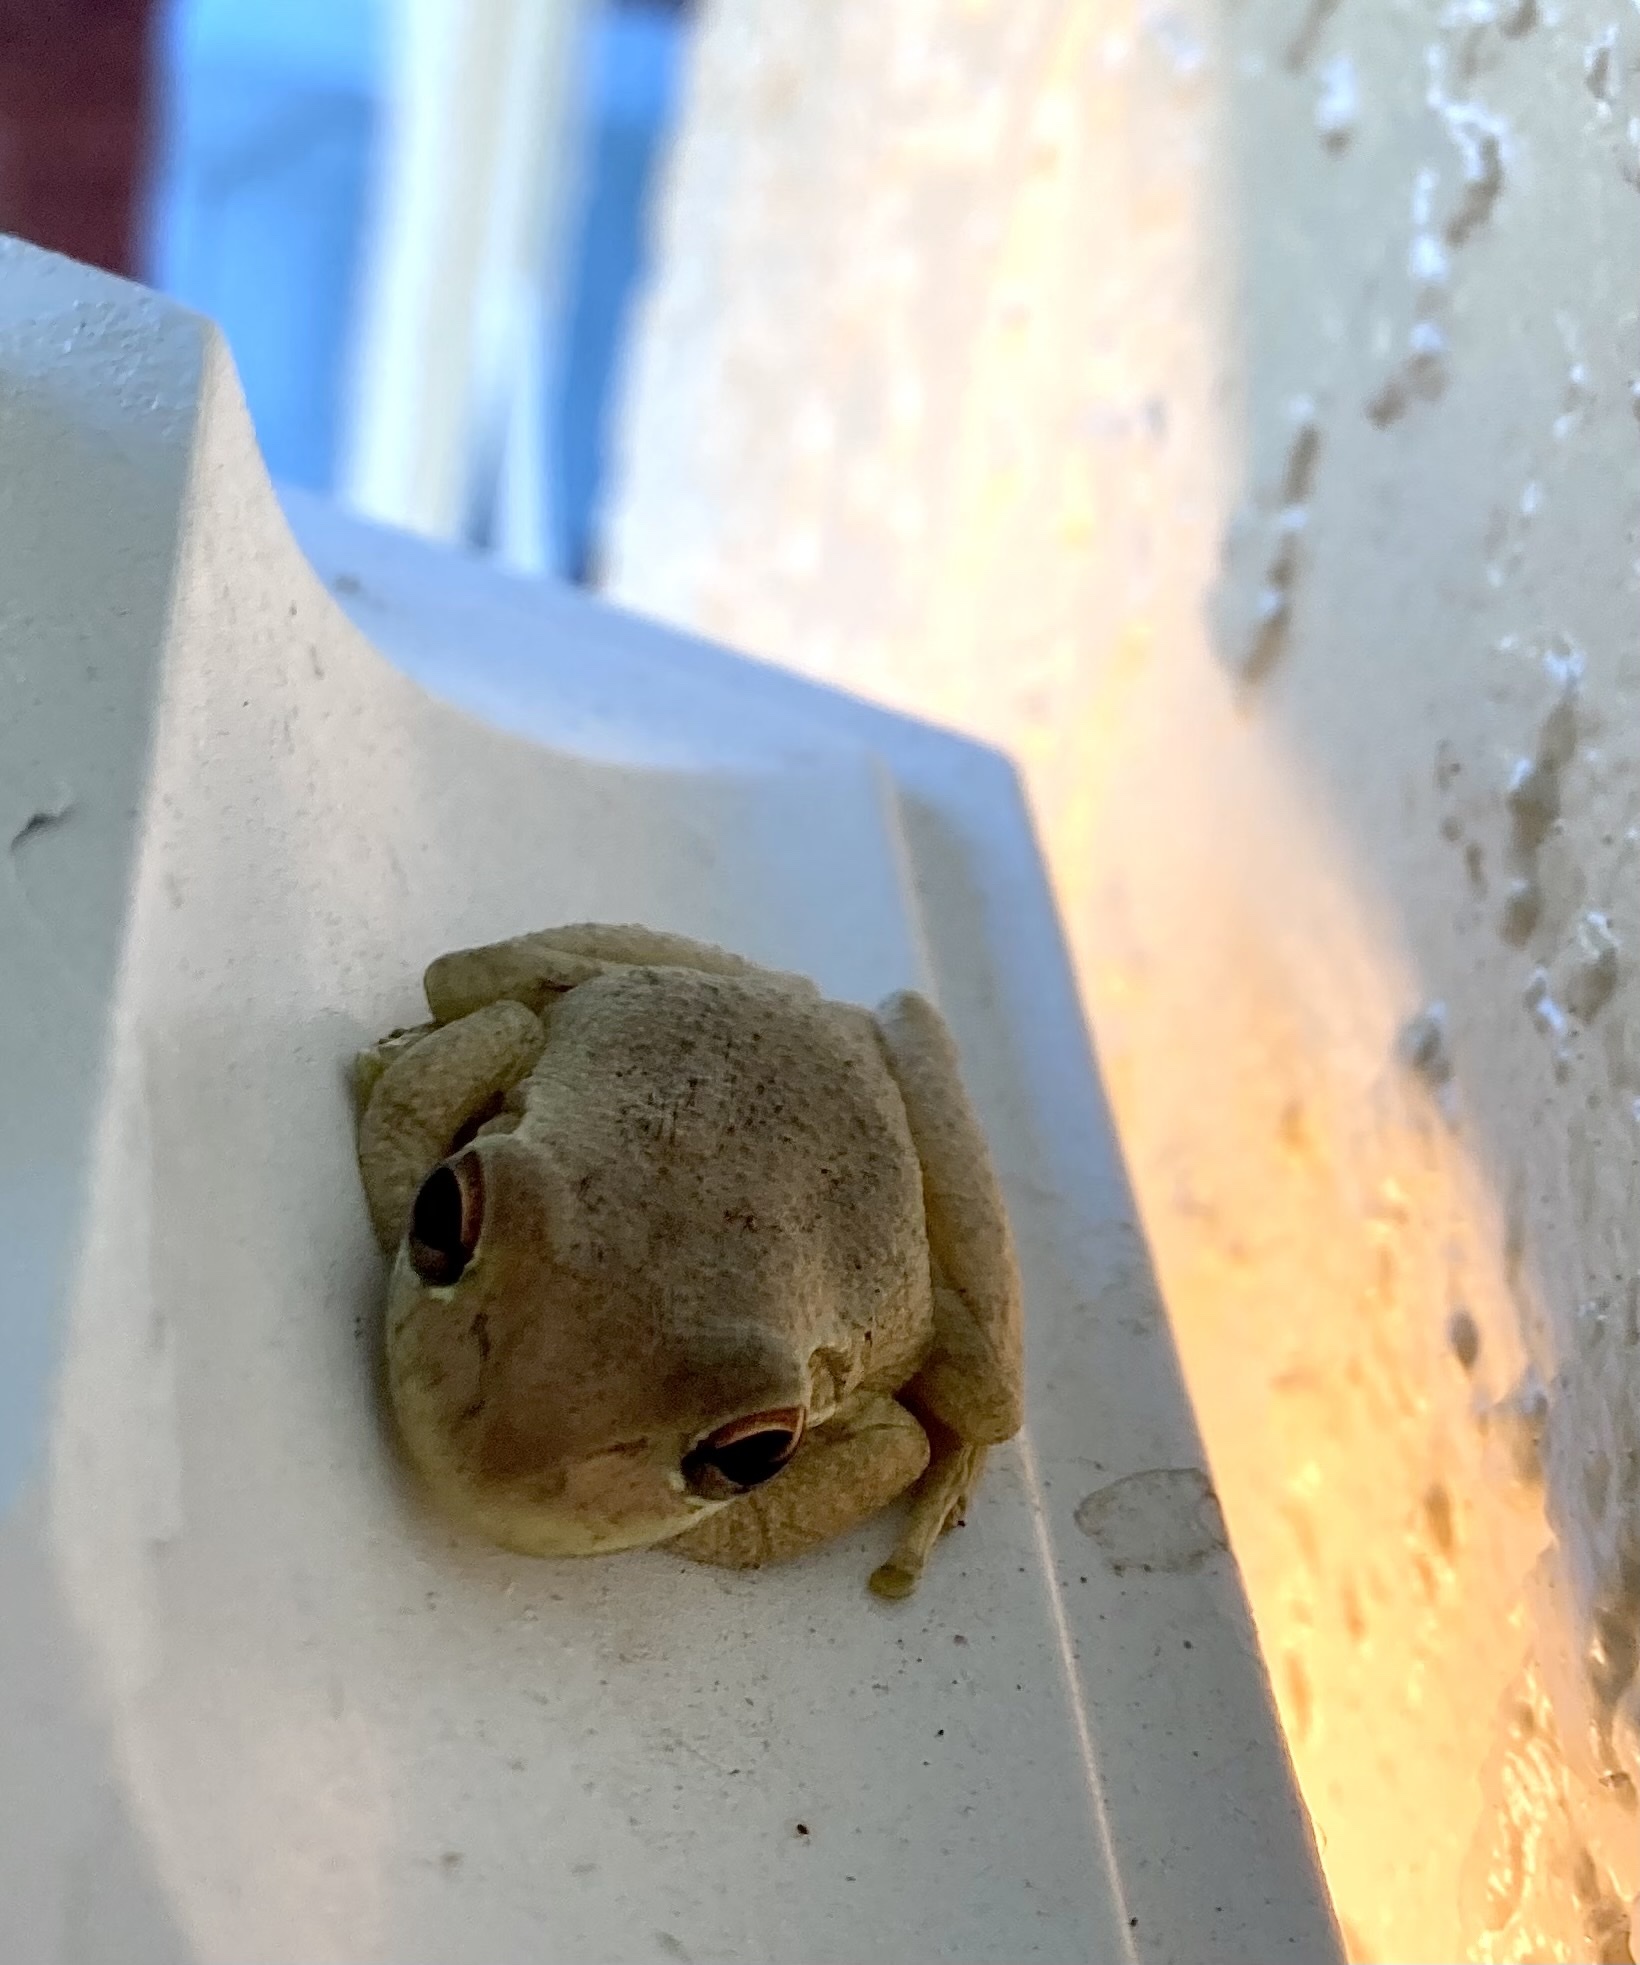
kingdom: Animalia
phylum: Chordata
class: Amphibia
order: Anura
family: Hylidae
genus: Osteopilus
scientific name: Osteopilus septentrionalis
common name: Cuban treefrog
